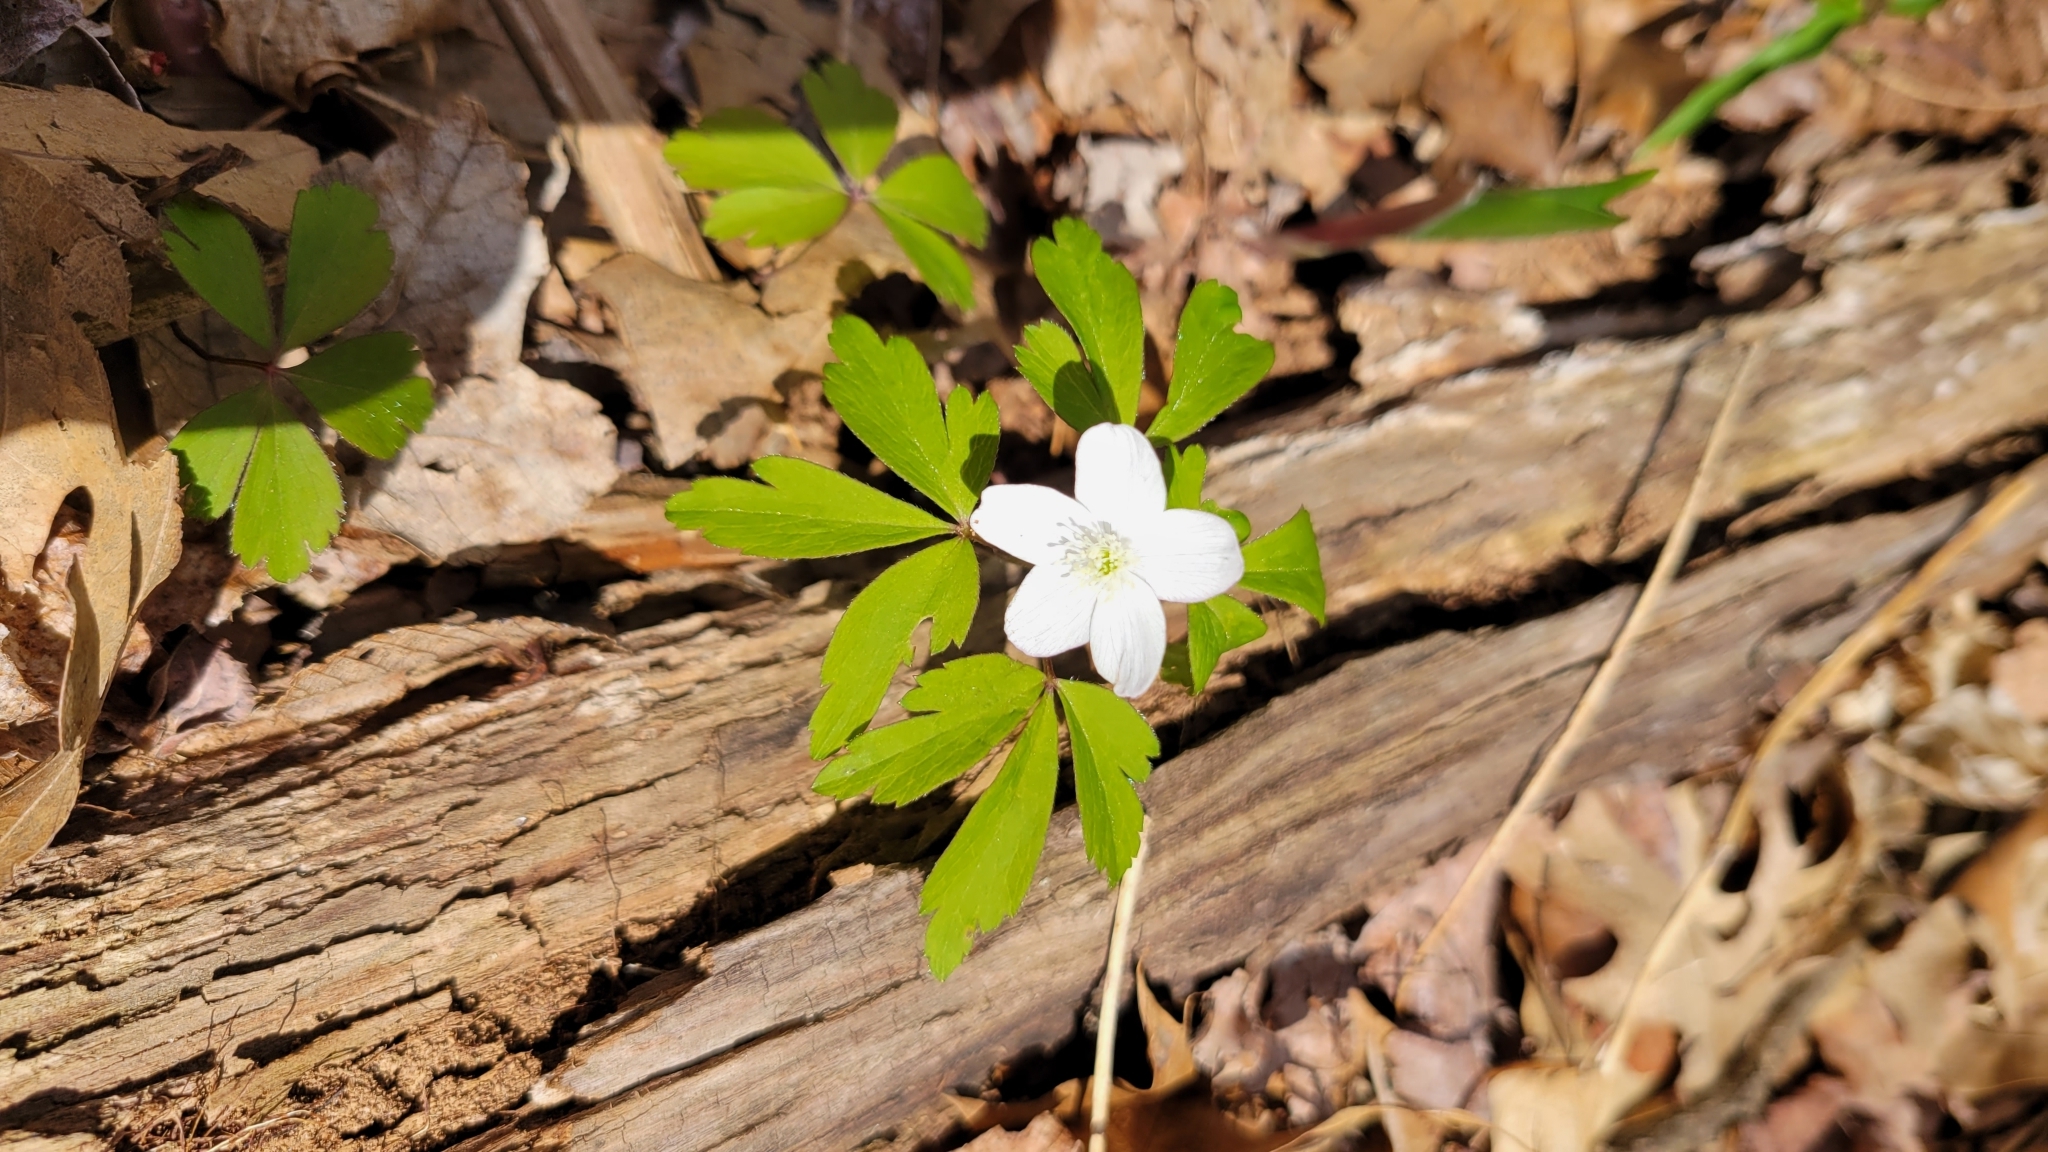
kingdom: Plantae
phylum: Tracheophyta
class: Magnoliopsida
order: Ranunculales
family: Ranunculaceae
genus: Anemone
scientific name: Anemone quinquefolia
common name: Wood anemone
